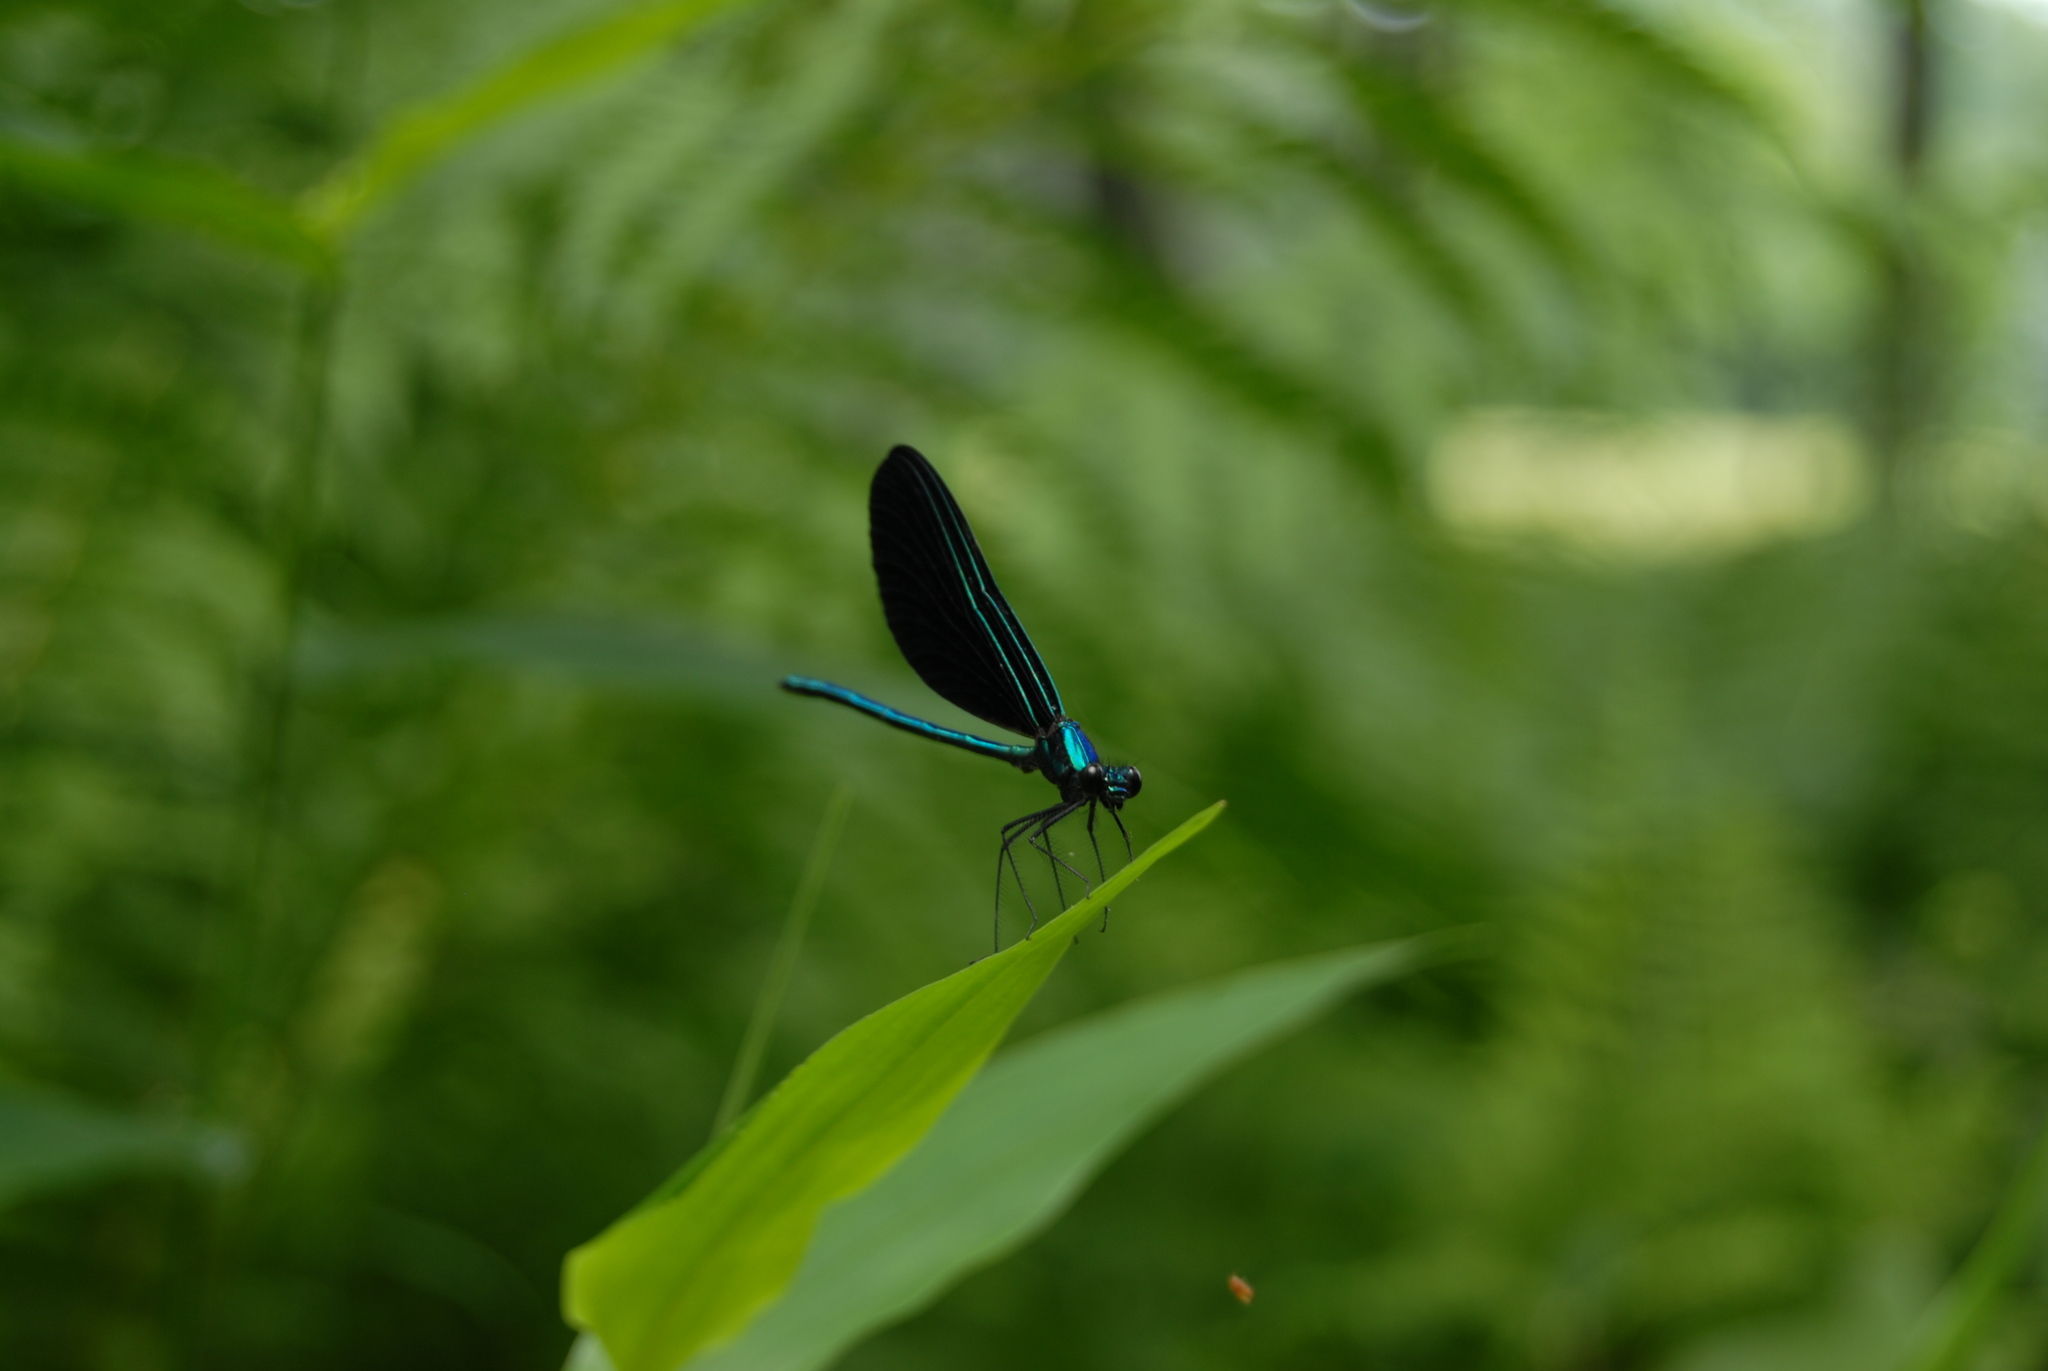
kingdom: Animalia
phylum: Arthropoda
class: Insecta
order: Odonata
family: Calopterygidae
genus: Calopteryx
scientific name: Calopteryx maculata
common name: Ebony jewelwing
